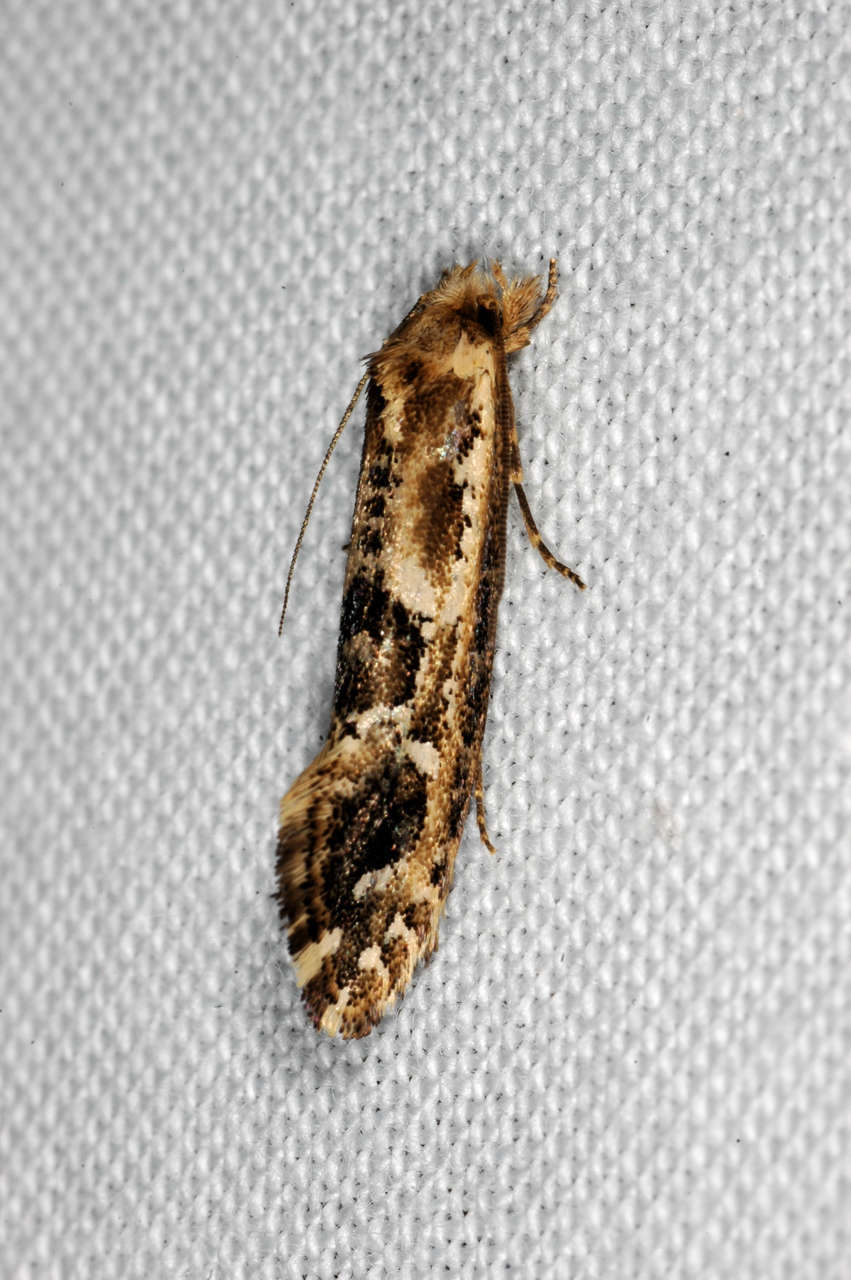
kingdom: Animalia
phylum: Arthropoda
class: Insecta
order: Lepidoptera
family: Tineidae
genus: Moerarchis
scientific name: Moerarchis inconcisella
